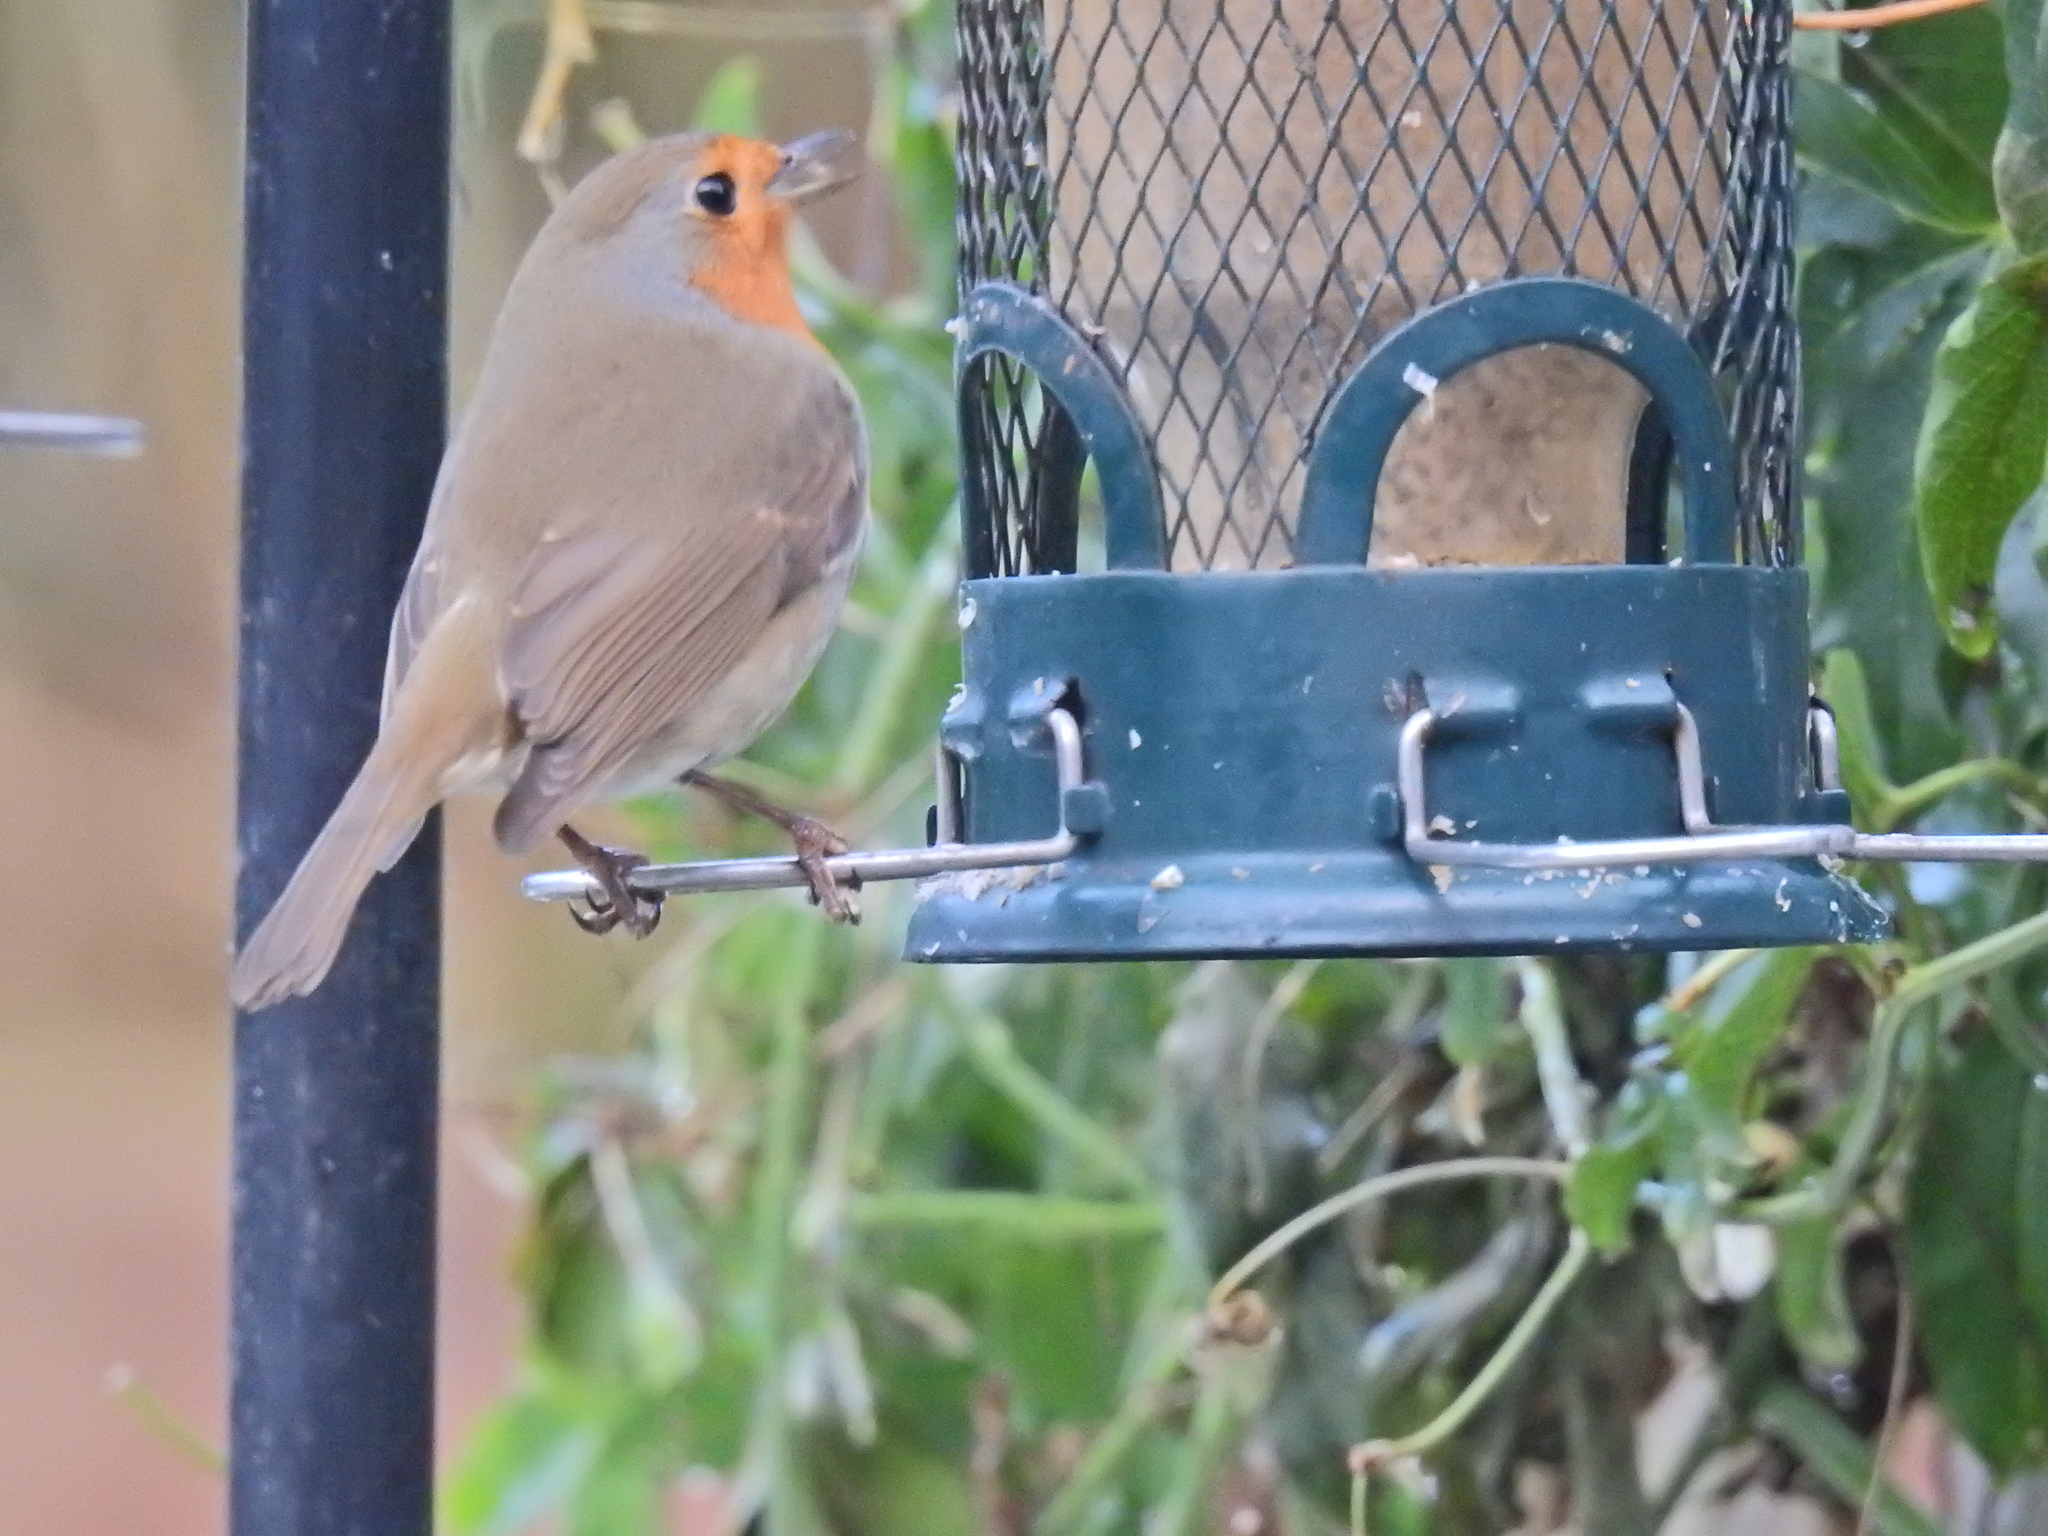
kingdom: Animalia
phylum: Chordata
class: Aves
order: Passeriformes
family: Muscicapidae
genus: Erithacus
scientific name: Erithacus rubecula
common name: European robin
